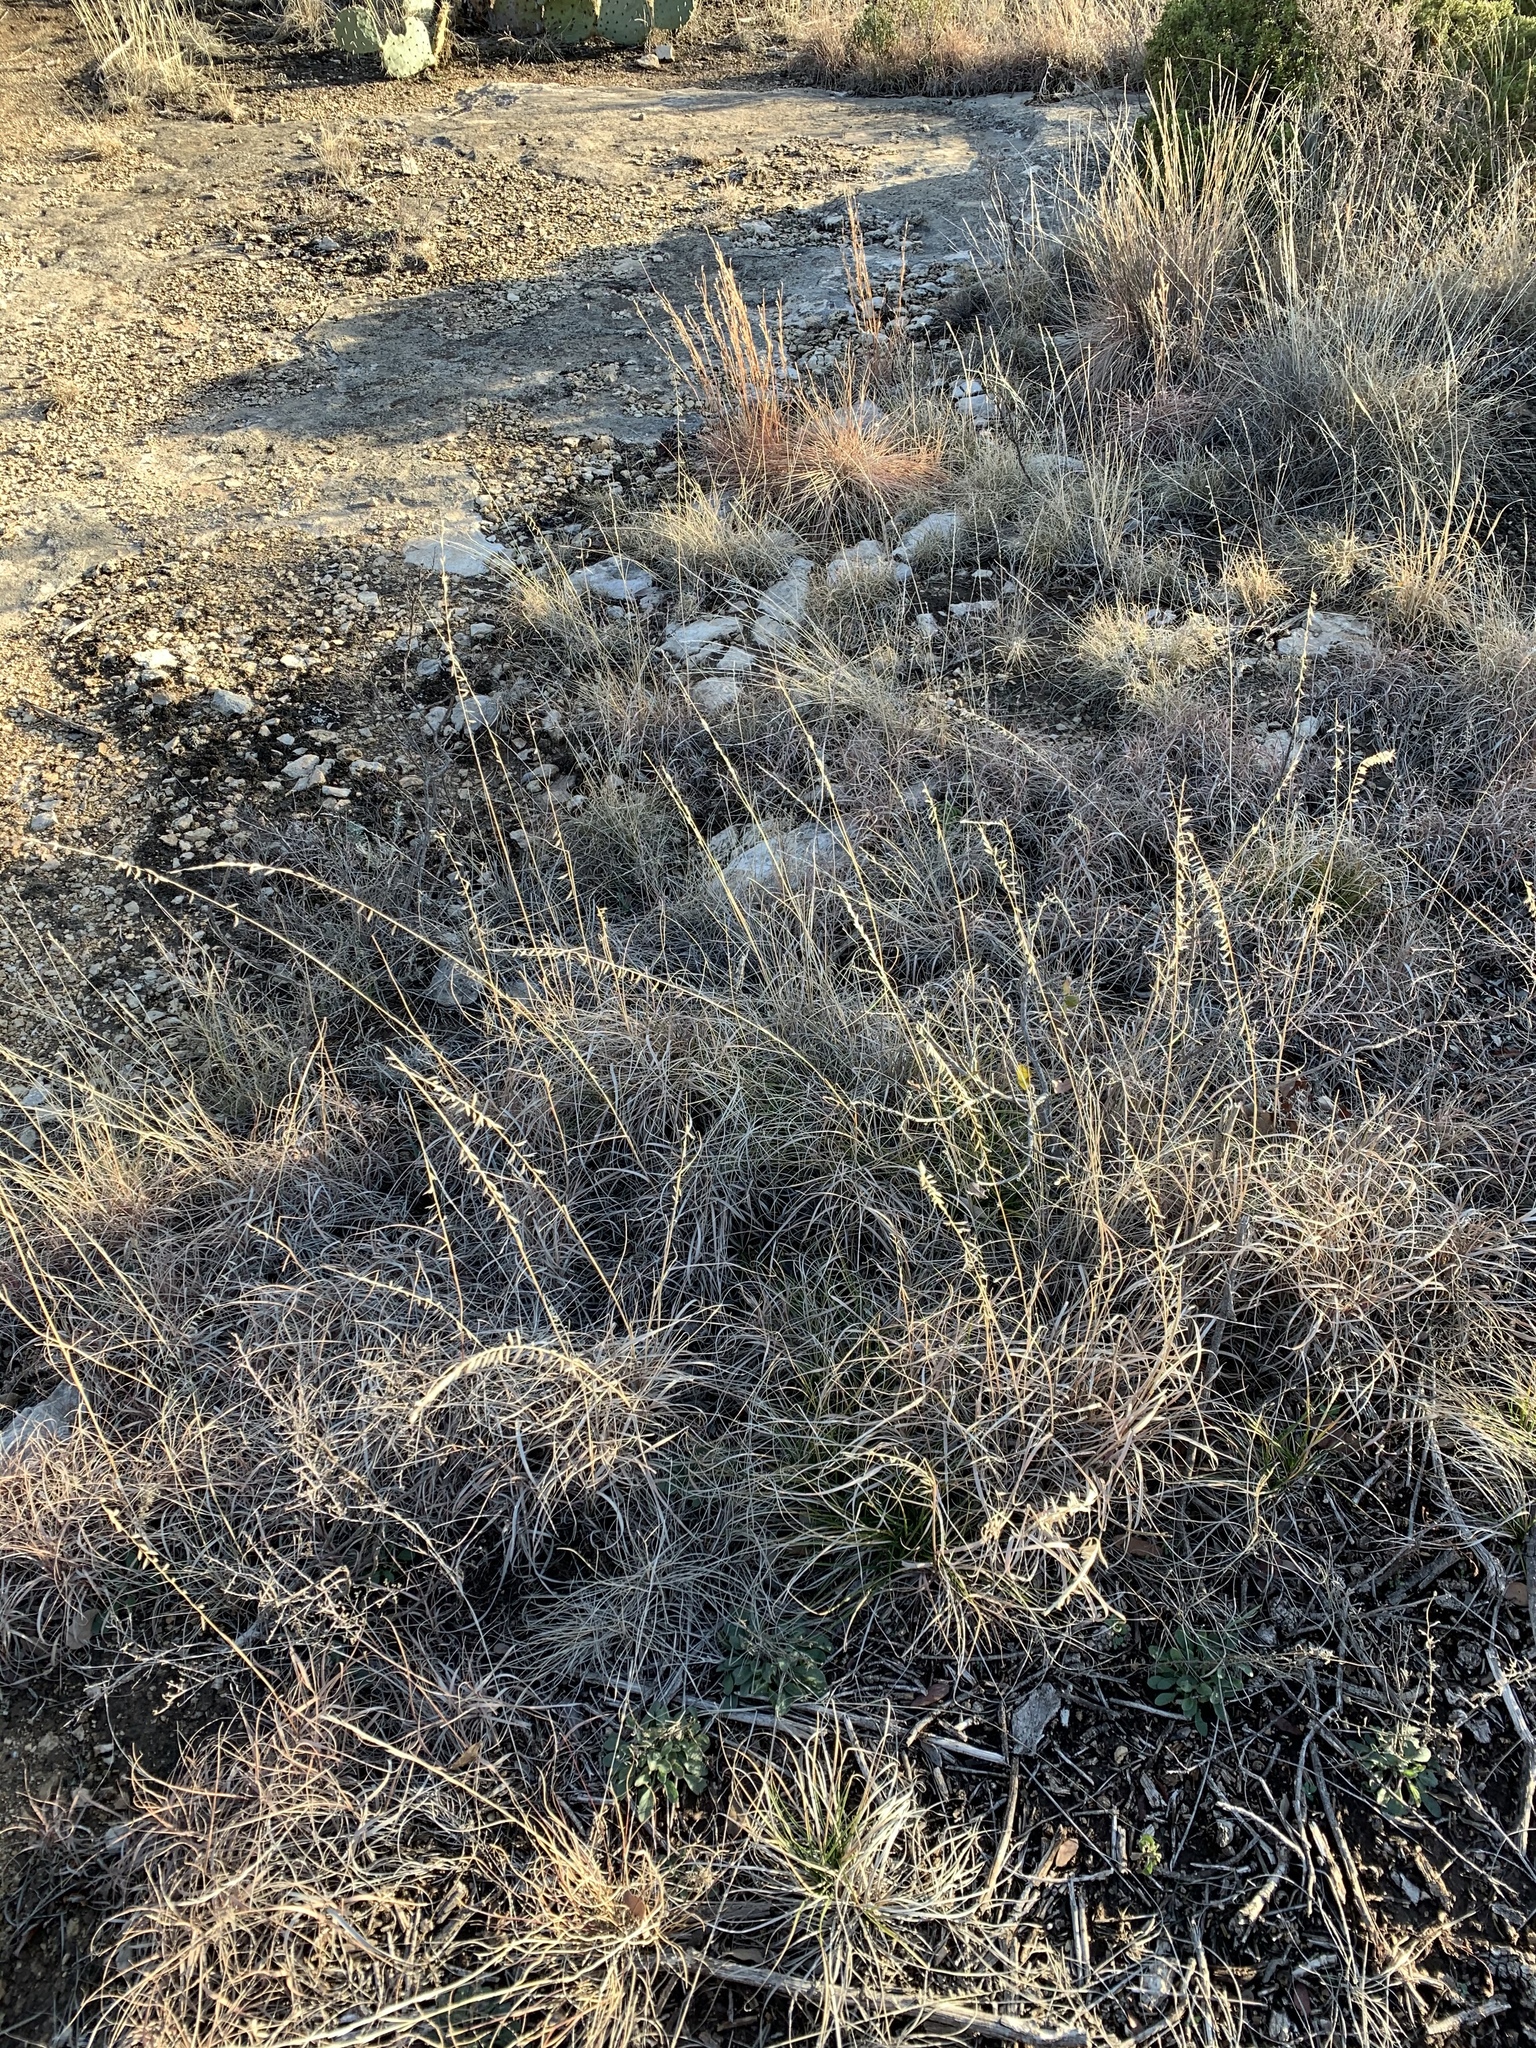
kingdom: Plantae
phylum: Tracheophyta
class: Liliopsida
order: Poales
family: Poaceae
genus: Bouteloua
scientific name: Bouteloua curtipendula
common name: Side-oats grama
